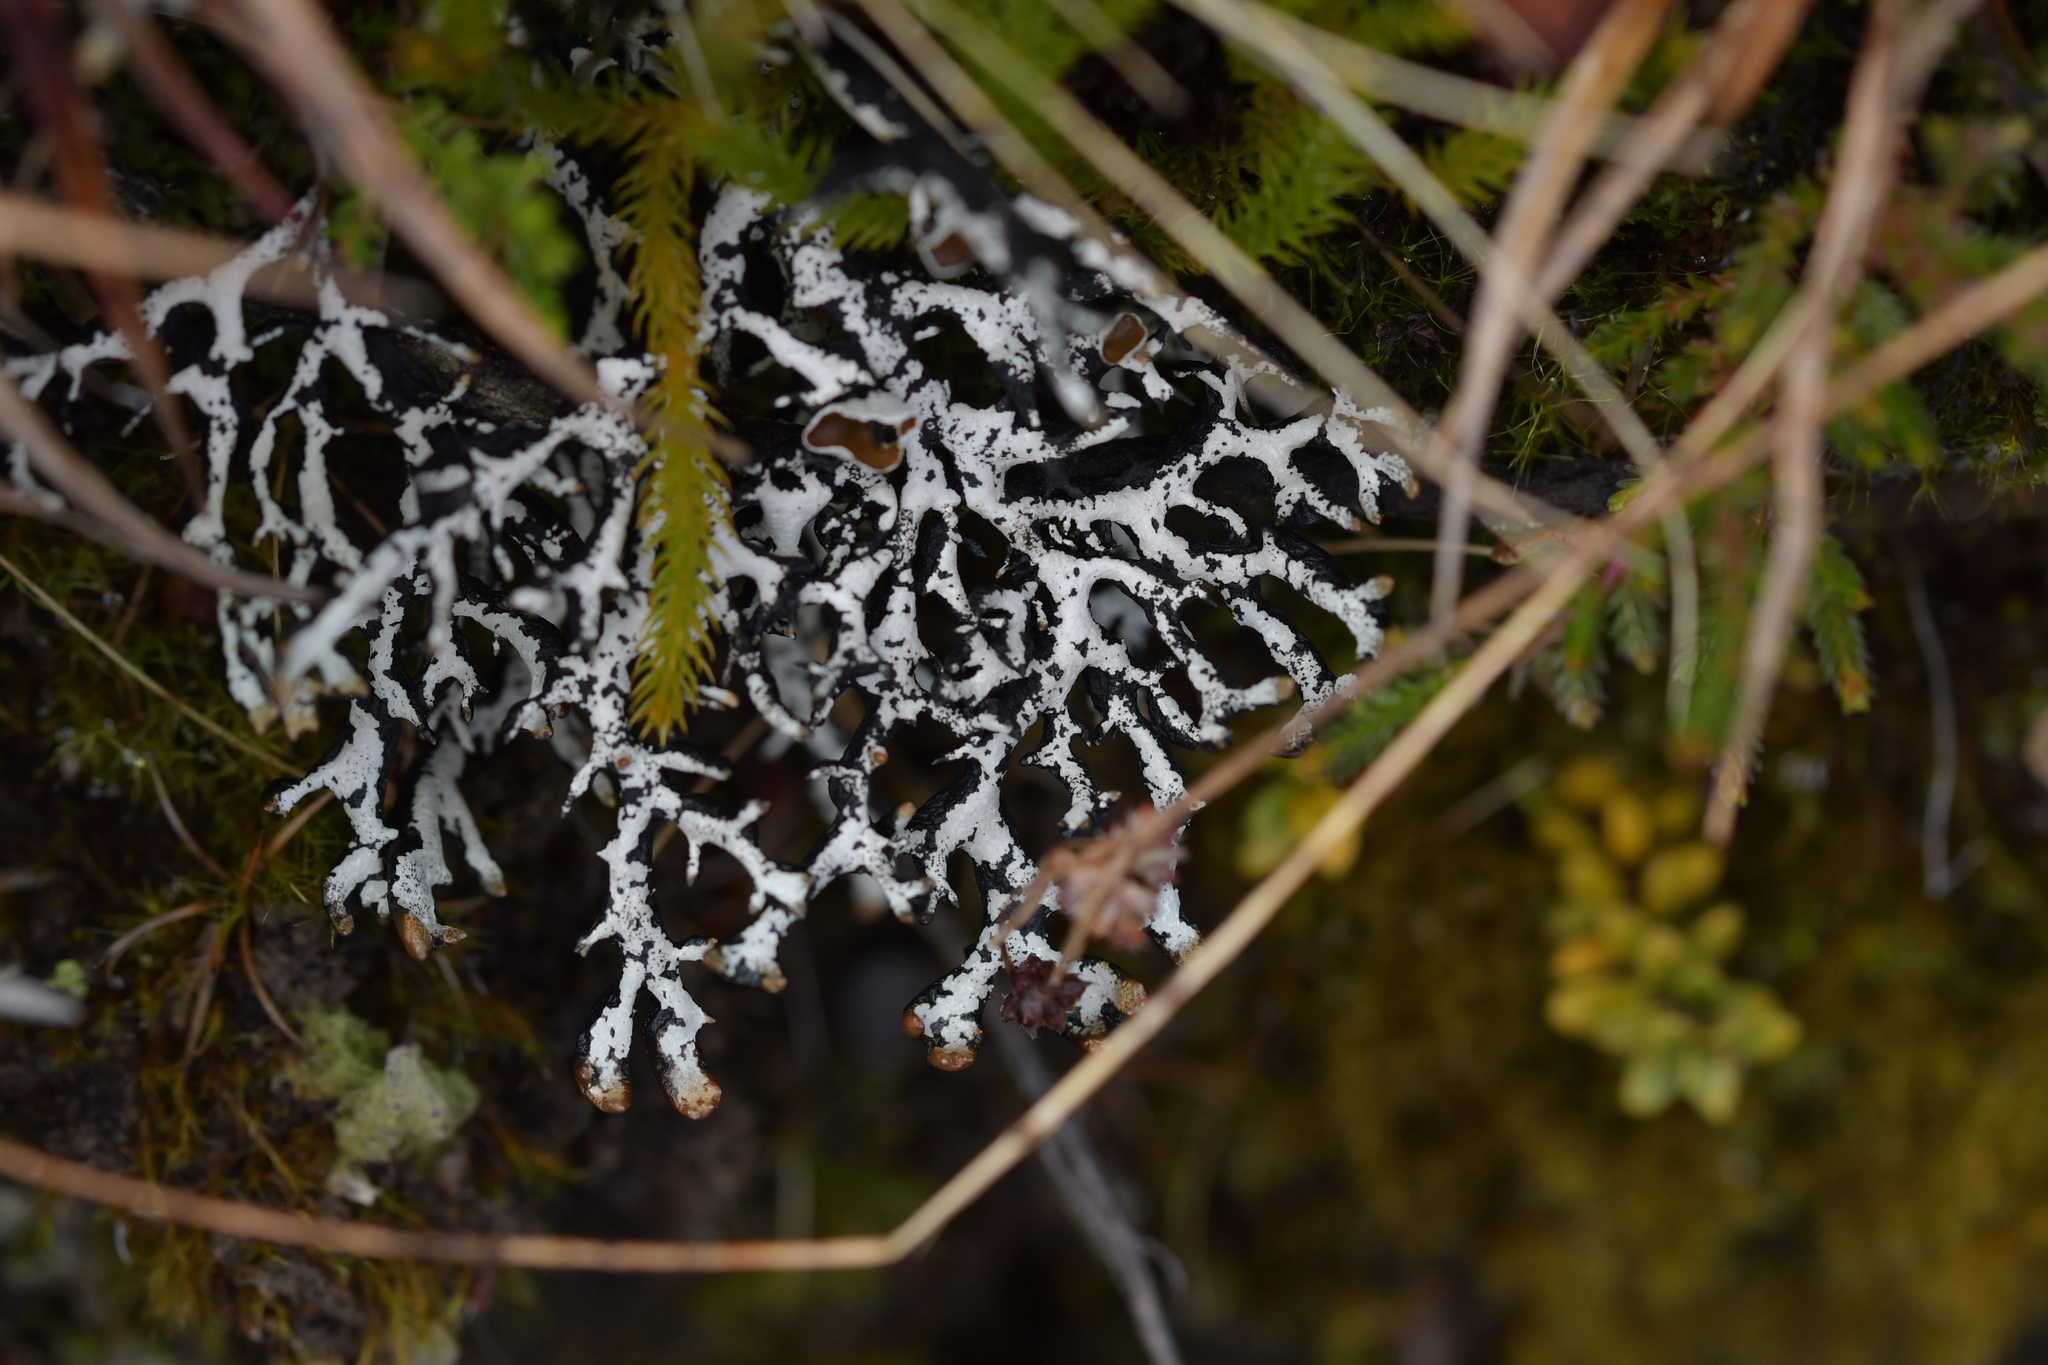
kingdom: Fungi
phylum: Ascomycota
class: Lecanoromycetes
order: Lecanorales
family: Parmeliaceae
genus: Hypogymnia
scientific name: Hypogymnia lugubris
